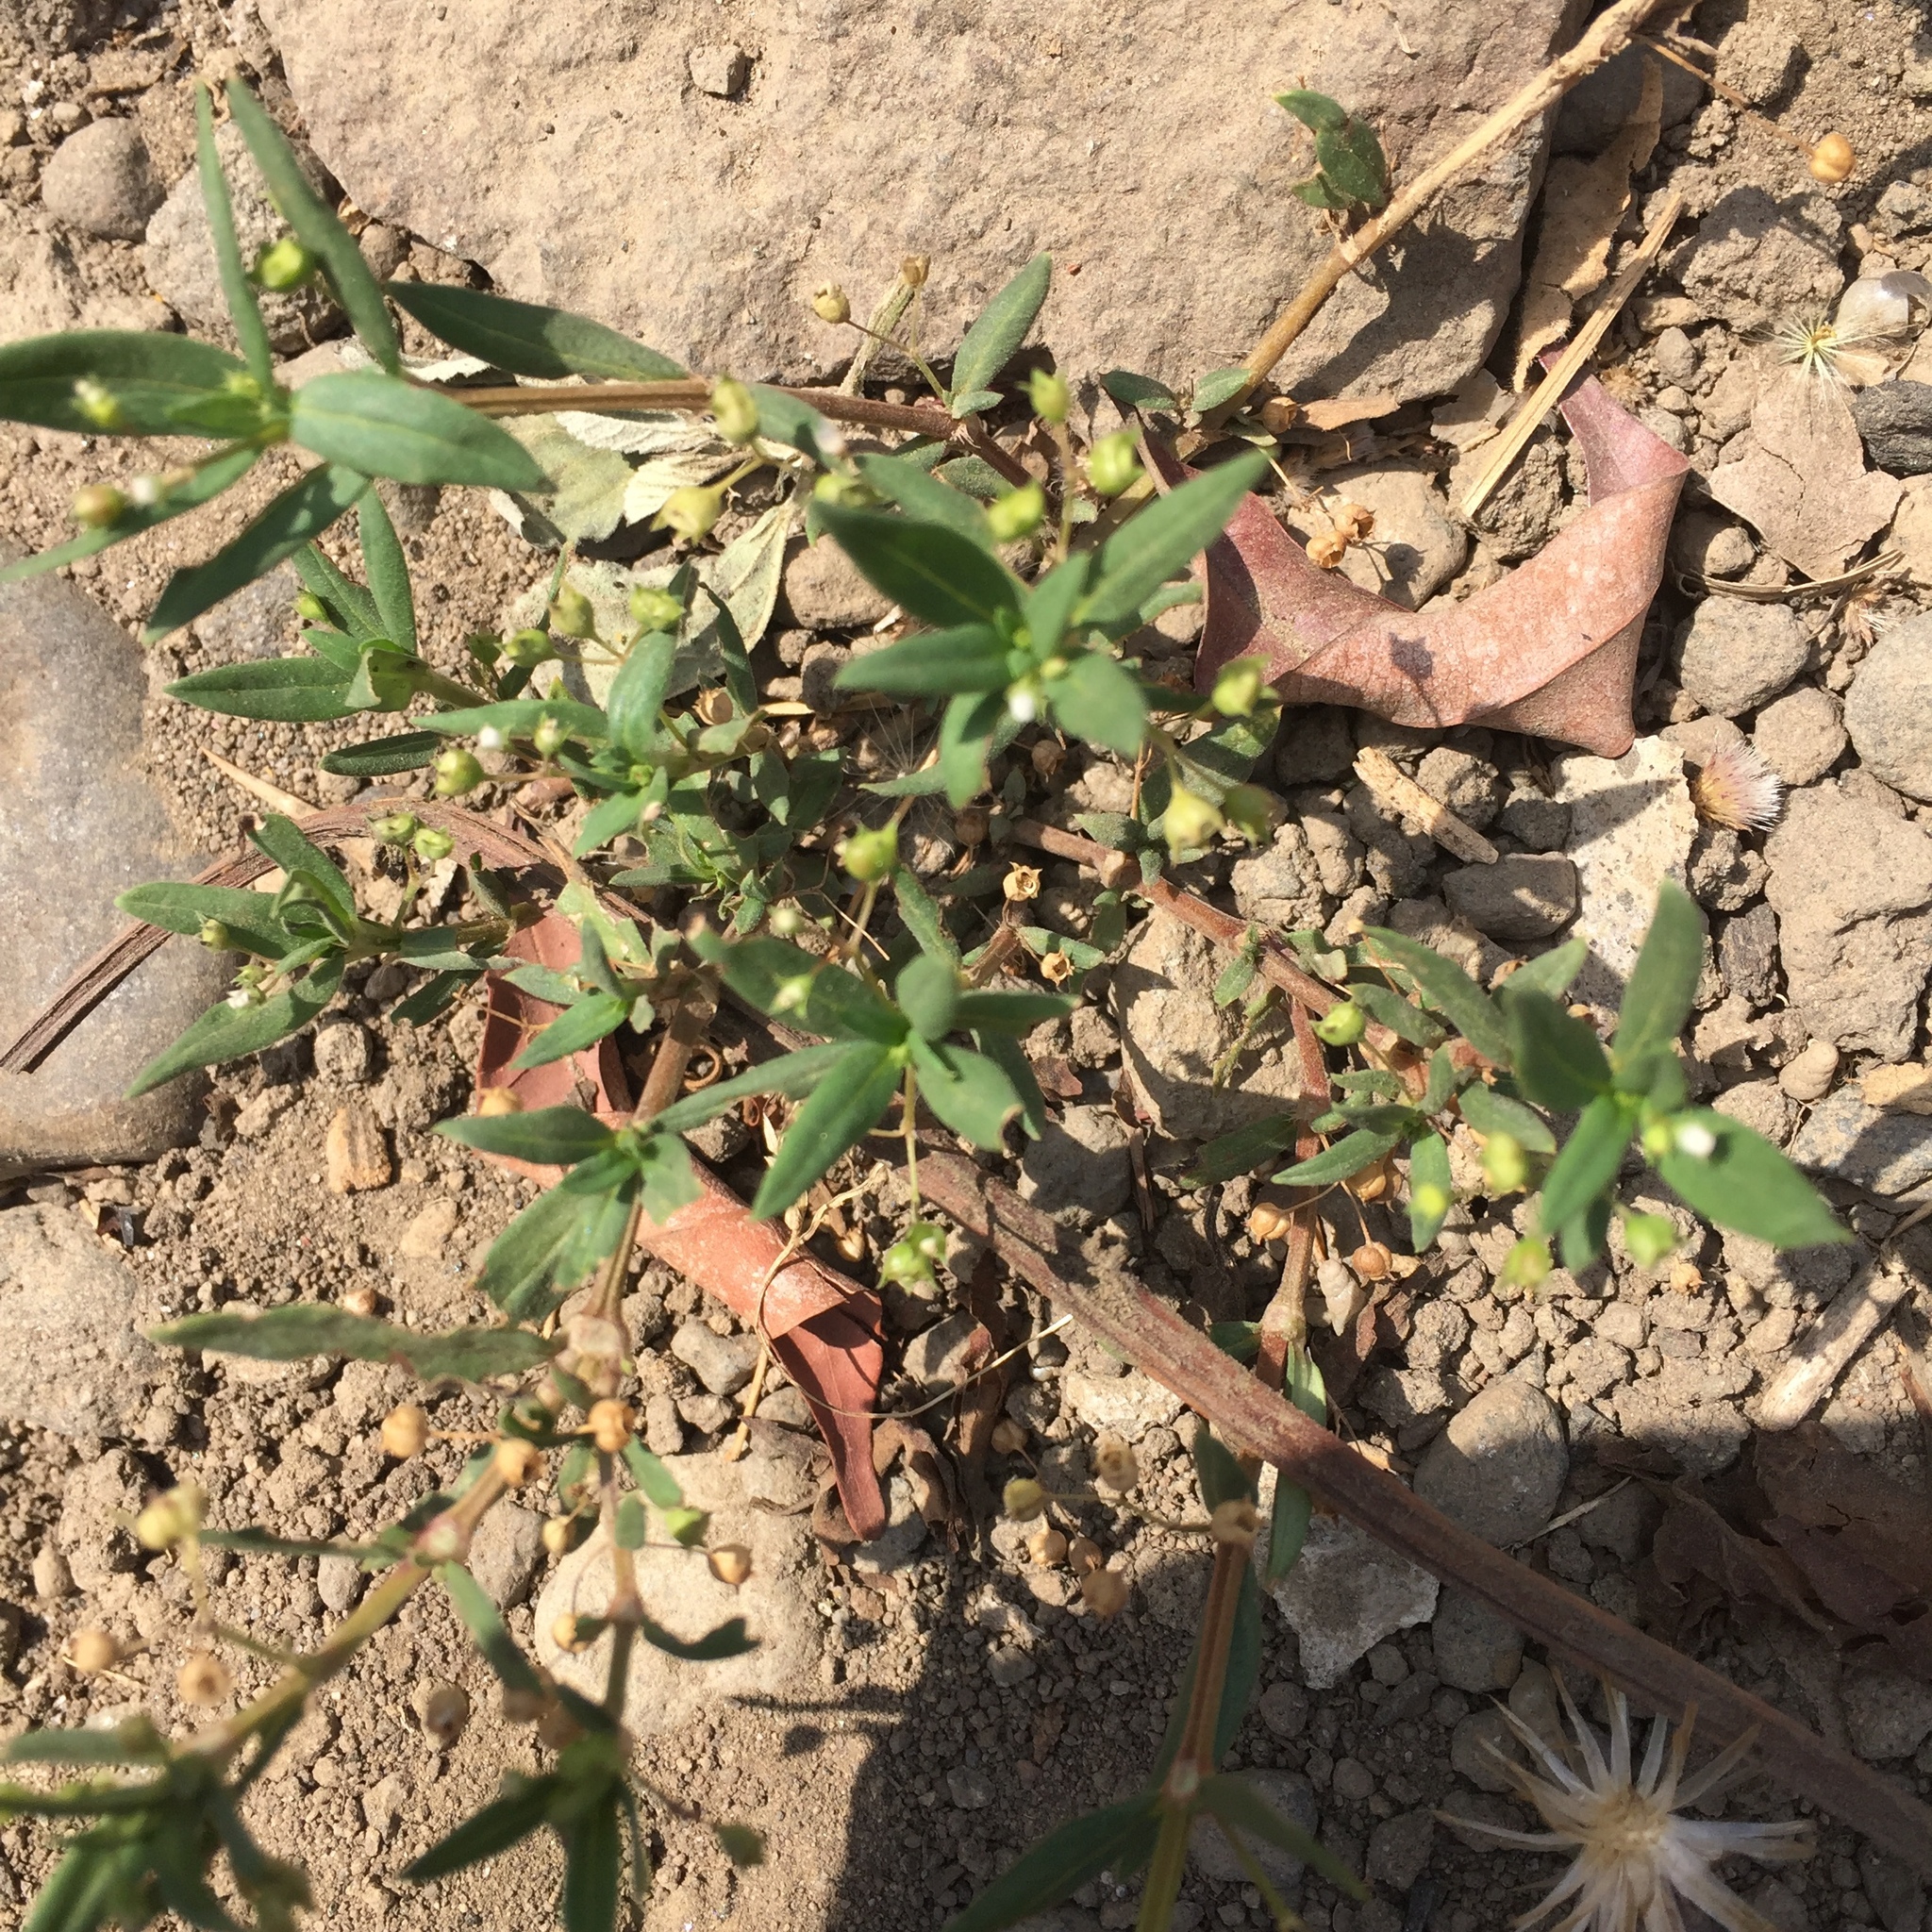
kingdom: Plantae
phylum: Tracheophyta
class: Magnoliopsida
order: Gentianales
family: Rubiaceae
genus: Oldenlandia
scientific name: Oldenlandia corymbosa
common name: Flat-top mille graines
